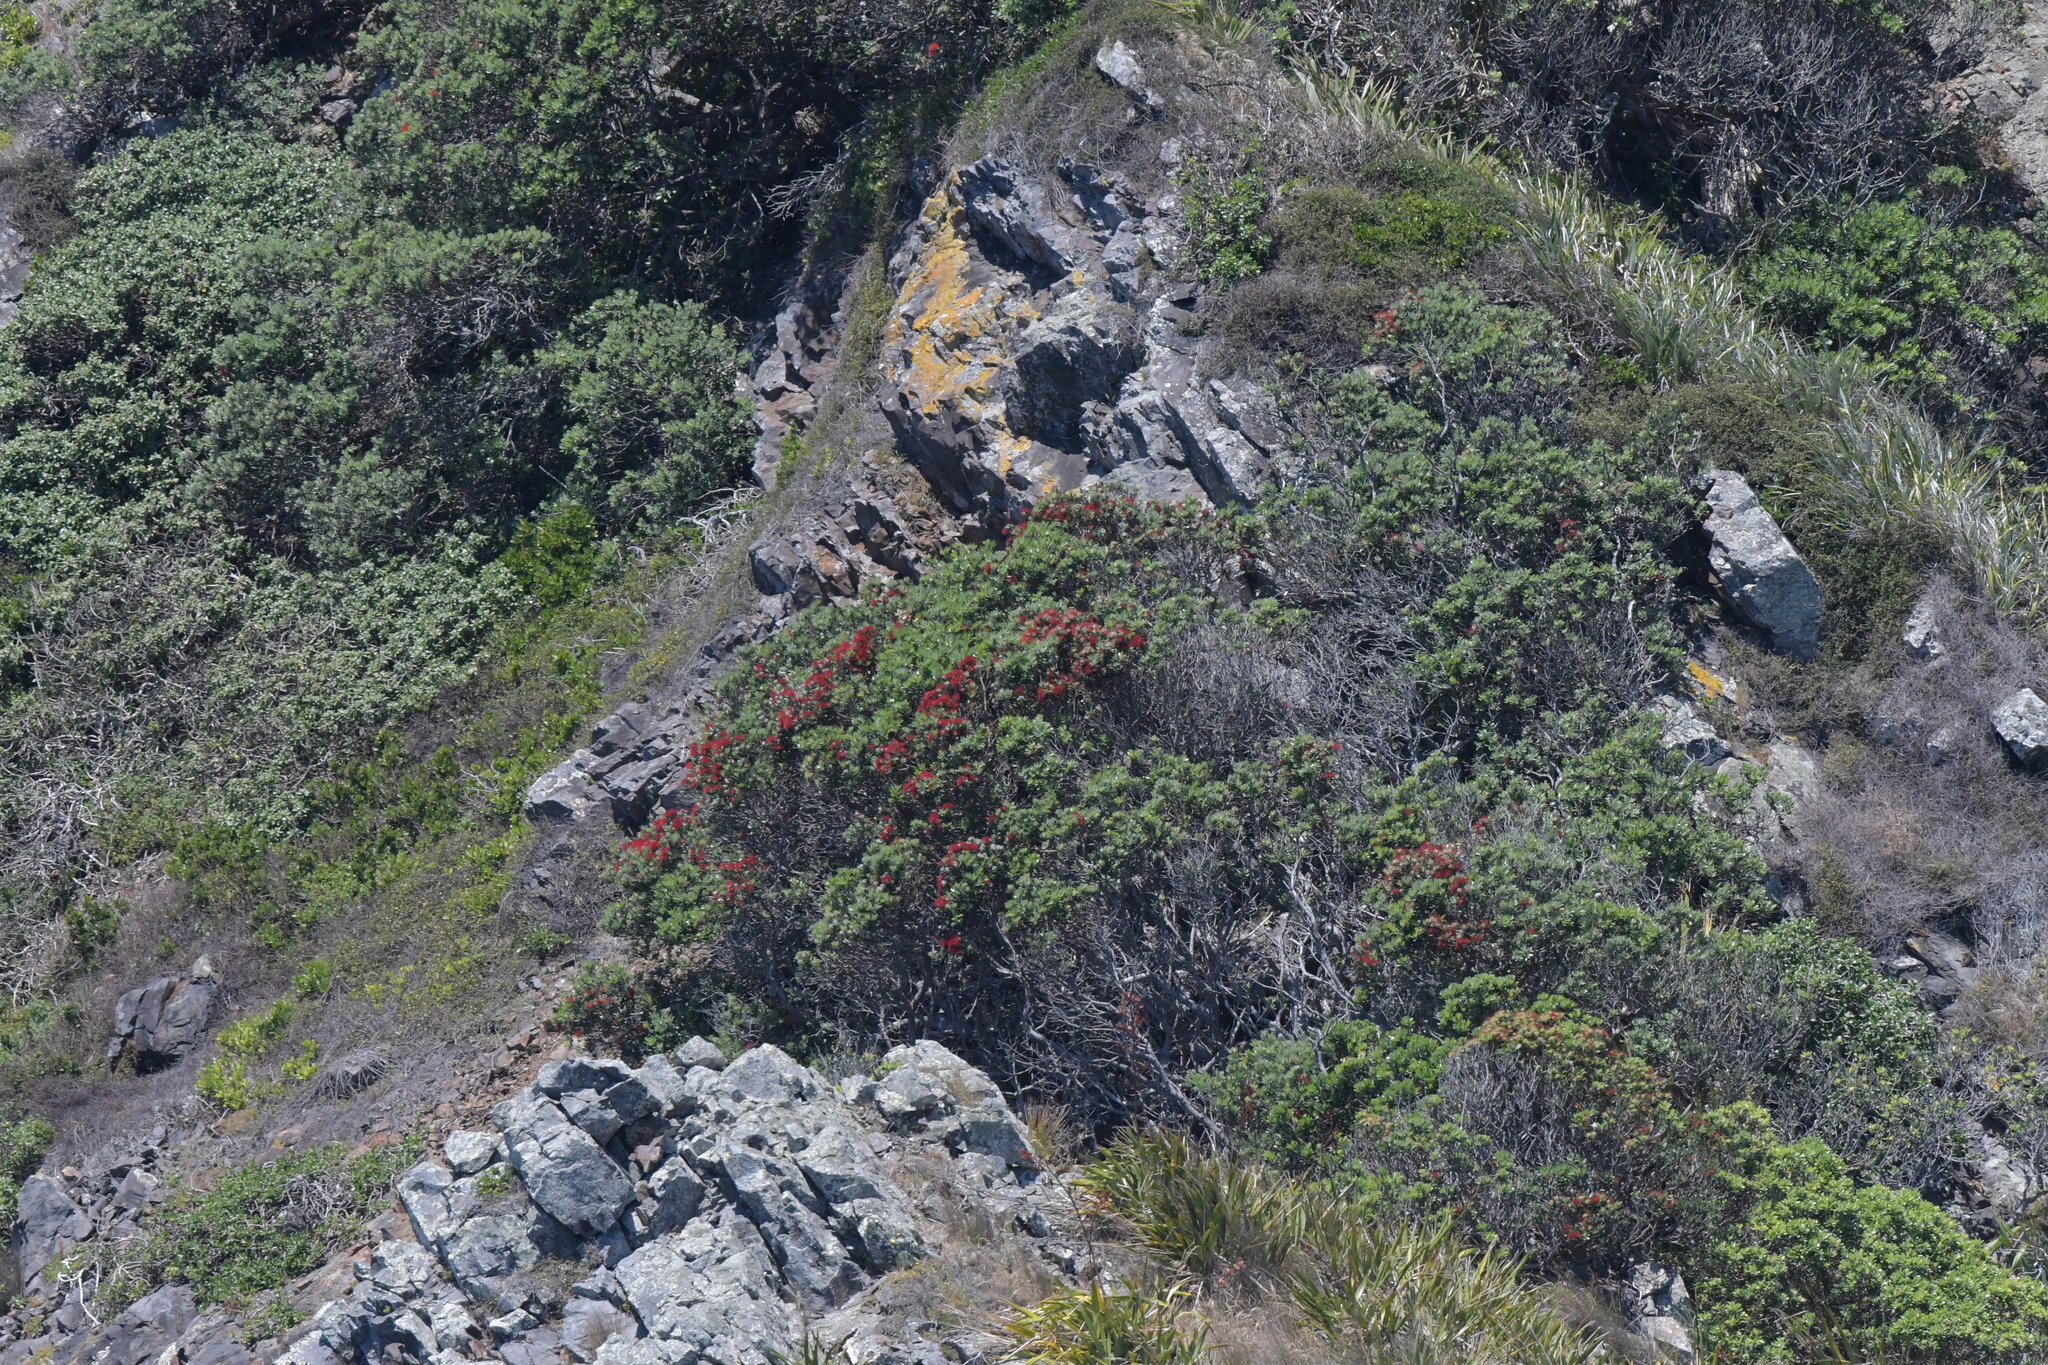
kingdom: Plantae
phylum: Tracheophyta
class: Magnoliopsida
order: Myrtales
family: Myrtaceae
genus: Metrosideros
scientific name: Metrosideros excelsa
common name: New zealand christmastree
